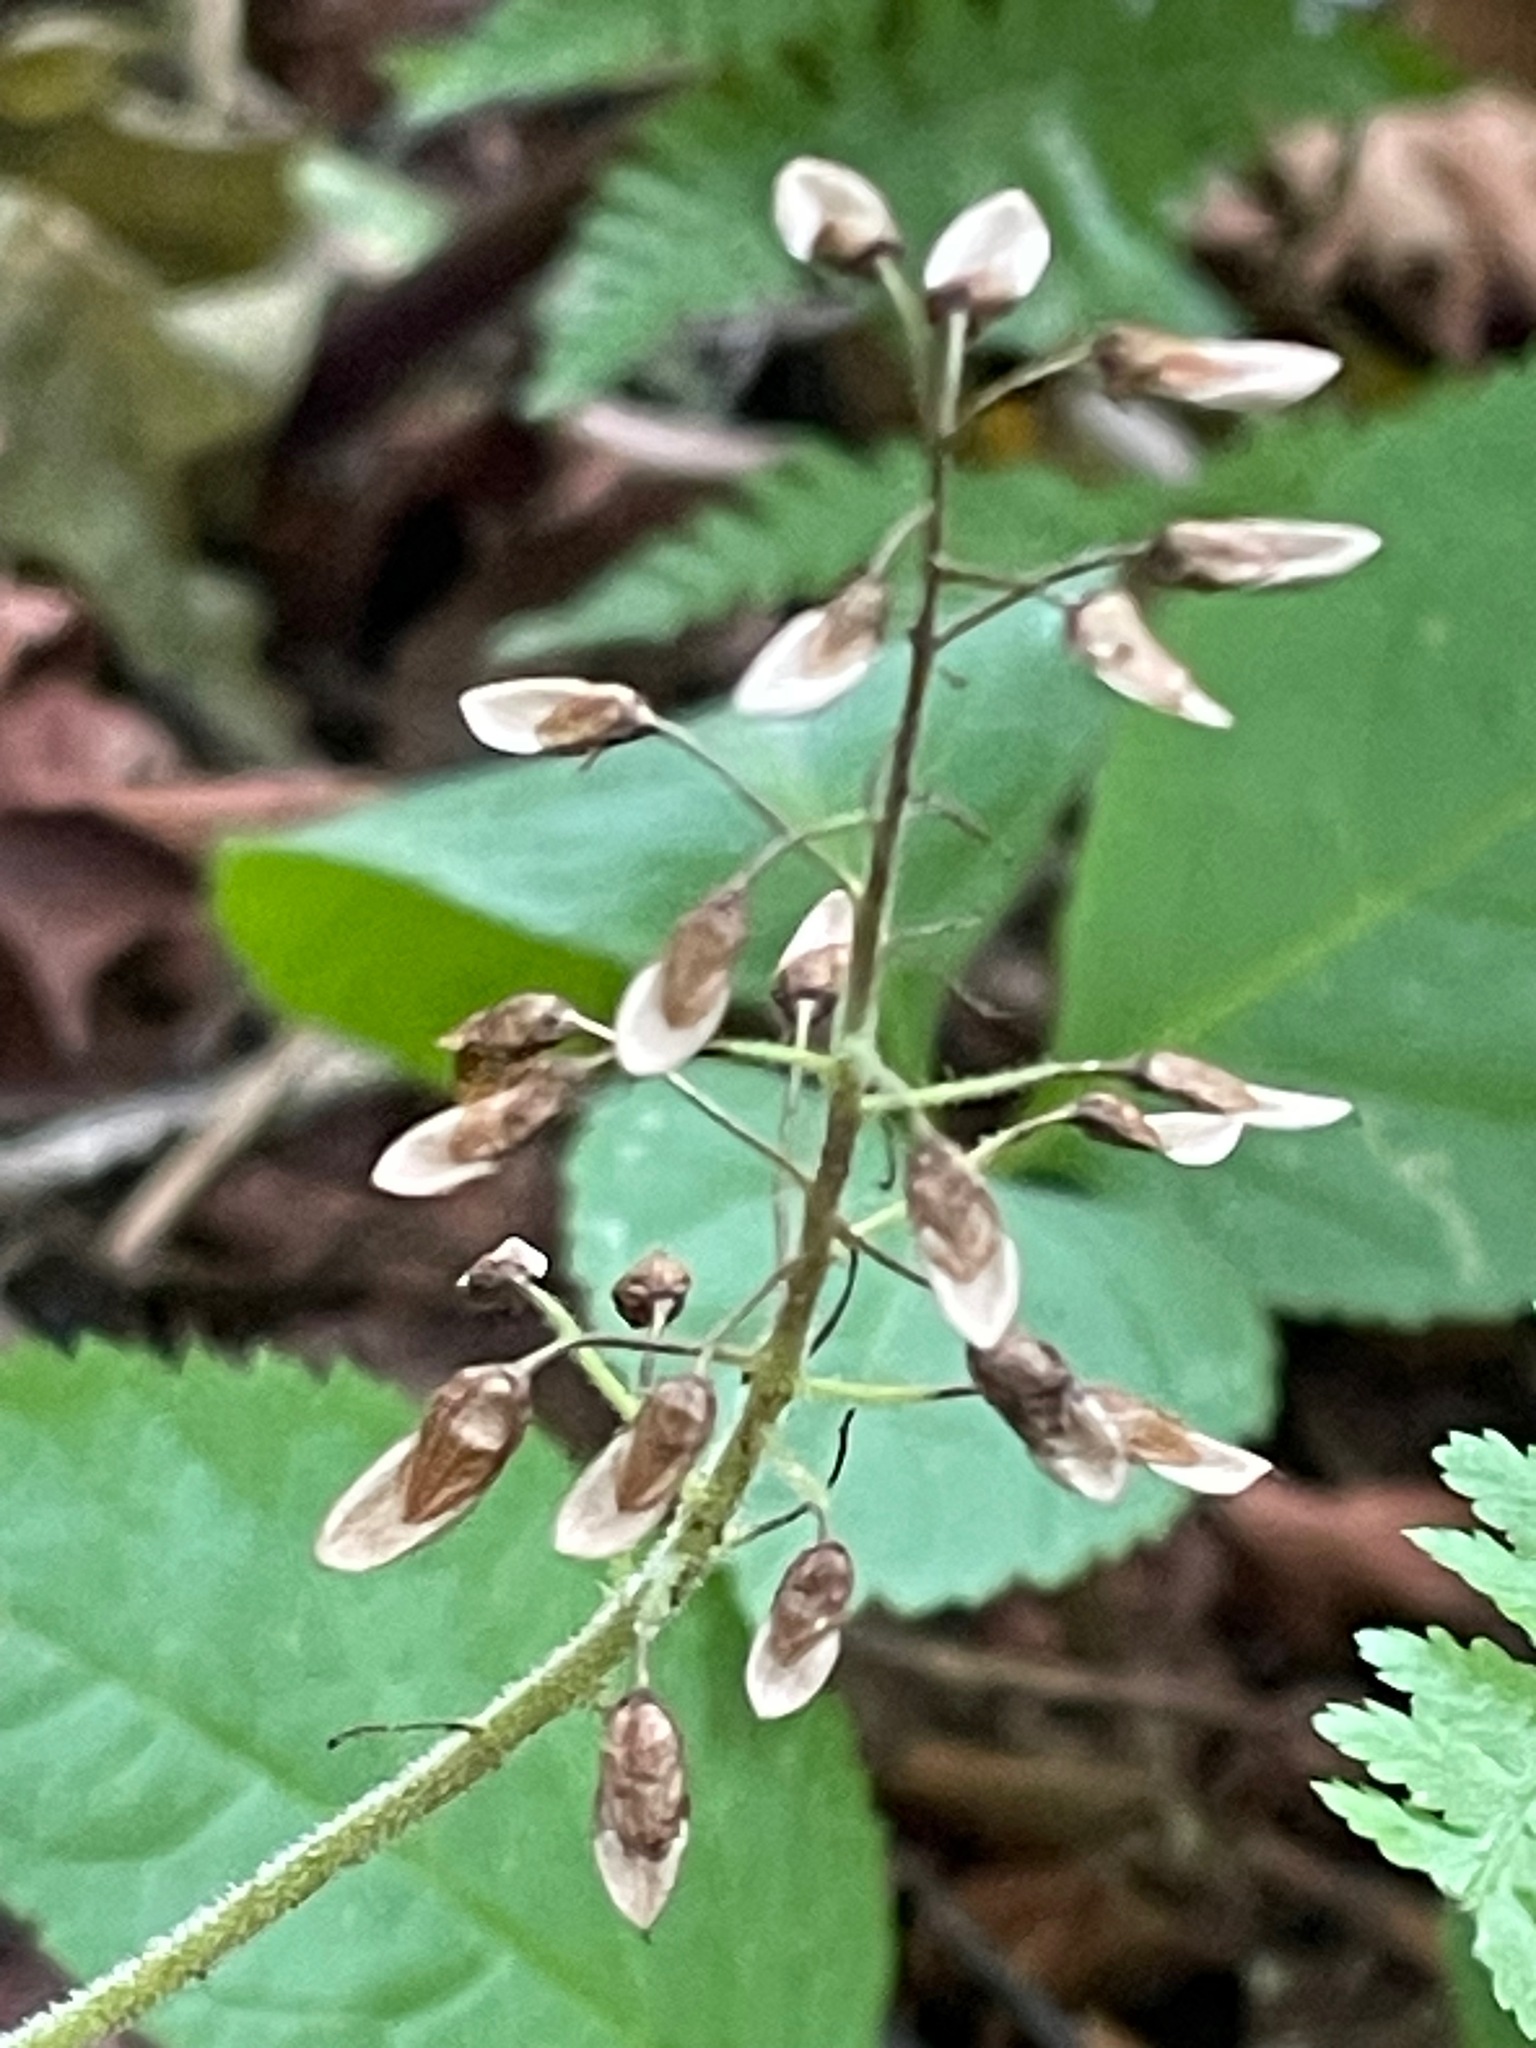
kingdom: Plantae
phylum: Tracheophyta
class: Magnoliopsida
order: Saxifragales
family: Saxifragaceae
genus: Tiarella
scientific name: Tiarella stolonifera
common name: Stoloniferous foamflower
